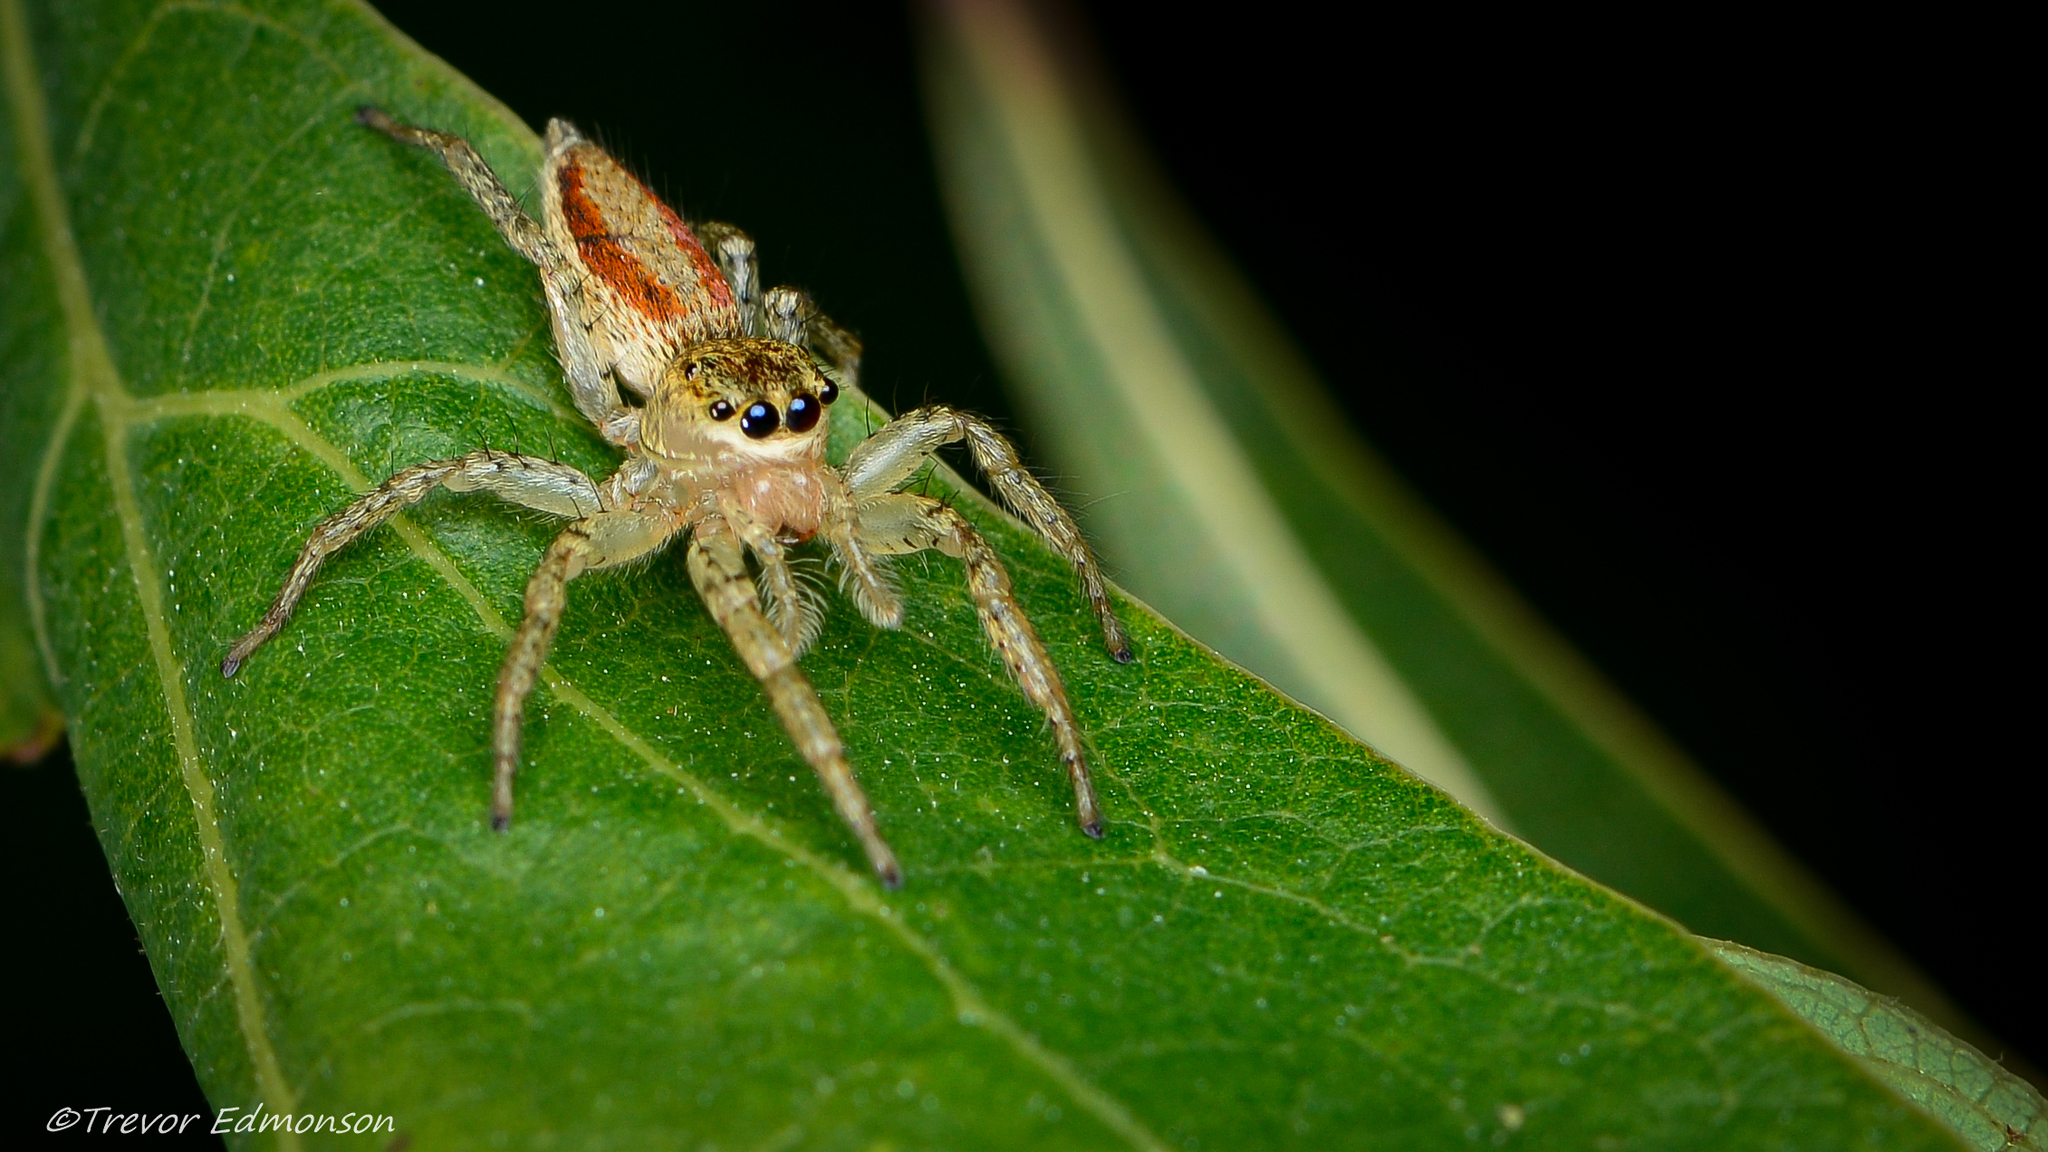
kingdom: Animalia
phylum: Arthropoda
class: Arachnida
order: Araneae
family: Salticidae
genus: Maevia
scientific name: Maevia inclemens
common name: Dimorphic jumper
